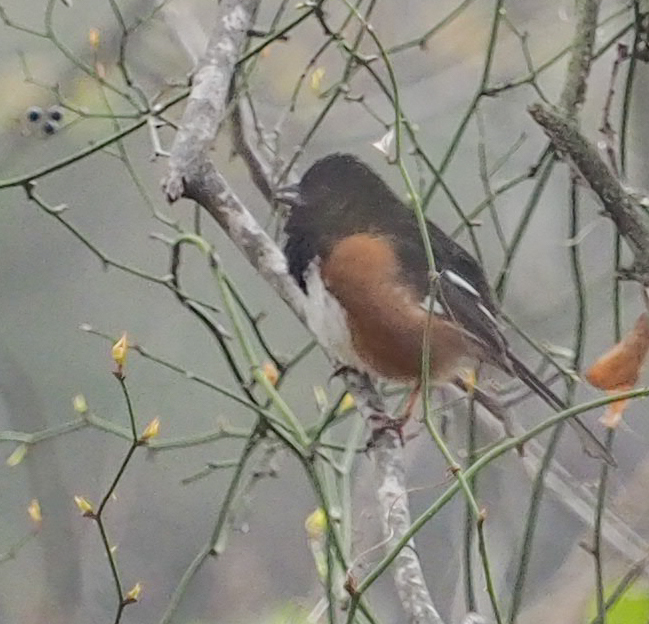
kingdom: Animalia
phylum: Chordata
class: Aves
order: Passeriformes
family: Passerellidae
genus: Pipilo
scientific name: Pipilo erythrophthalmus
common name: Eastern towhee
